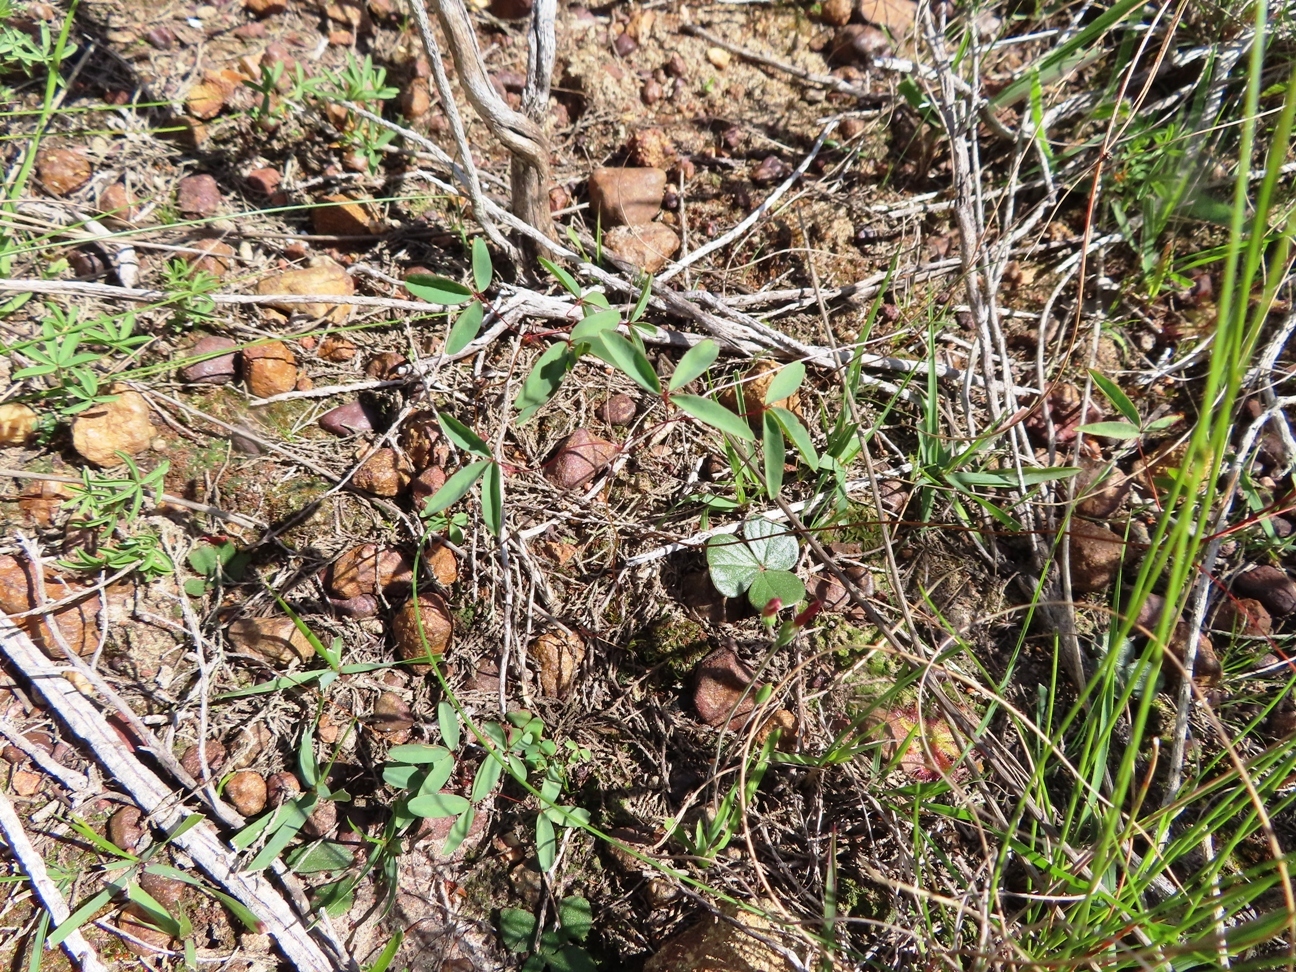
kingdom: Plantae
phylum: Tracheophyta
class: Magnoliopsida
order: Oxalidales
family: Oxalidaceae
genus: Oxalis
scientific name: Oxalis duriuscula
